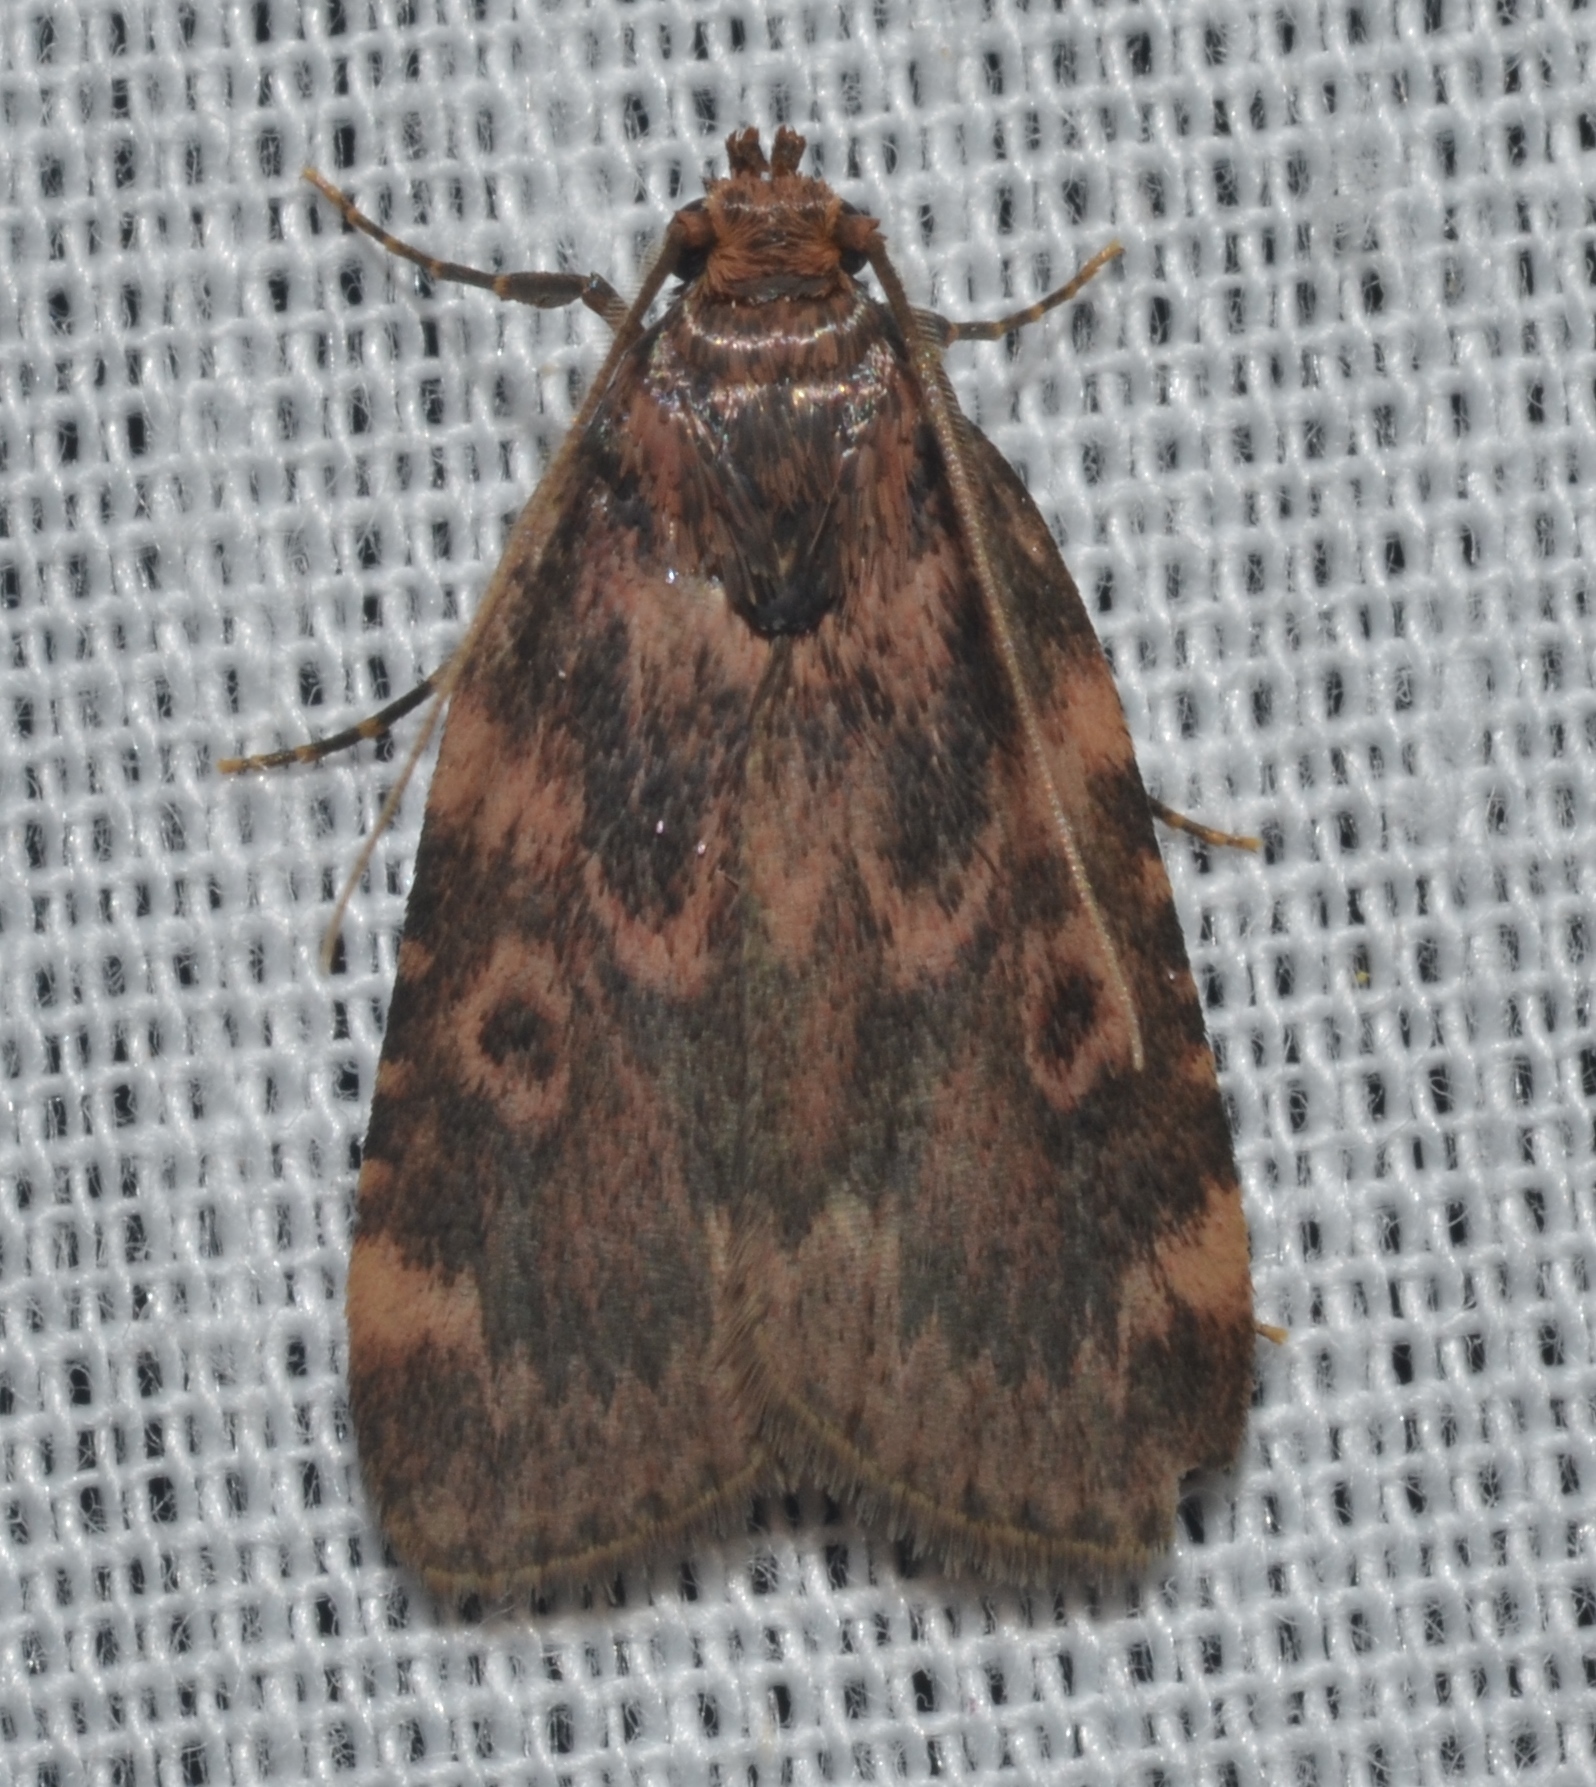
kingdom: Animalia
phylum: Arthropoda
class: Insecta
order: Lepidoptera
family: Pyralidae
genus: Aglossa
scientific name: Aglossa cuprina
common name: Grease moth
